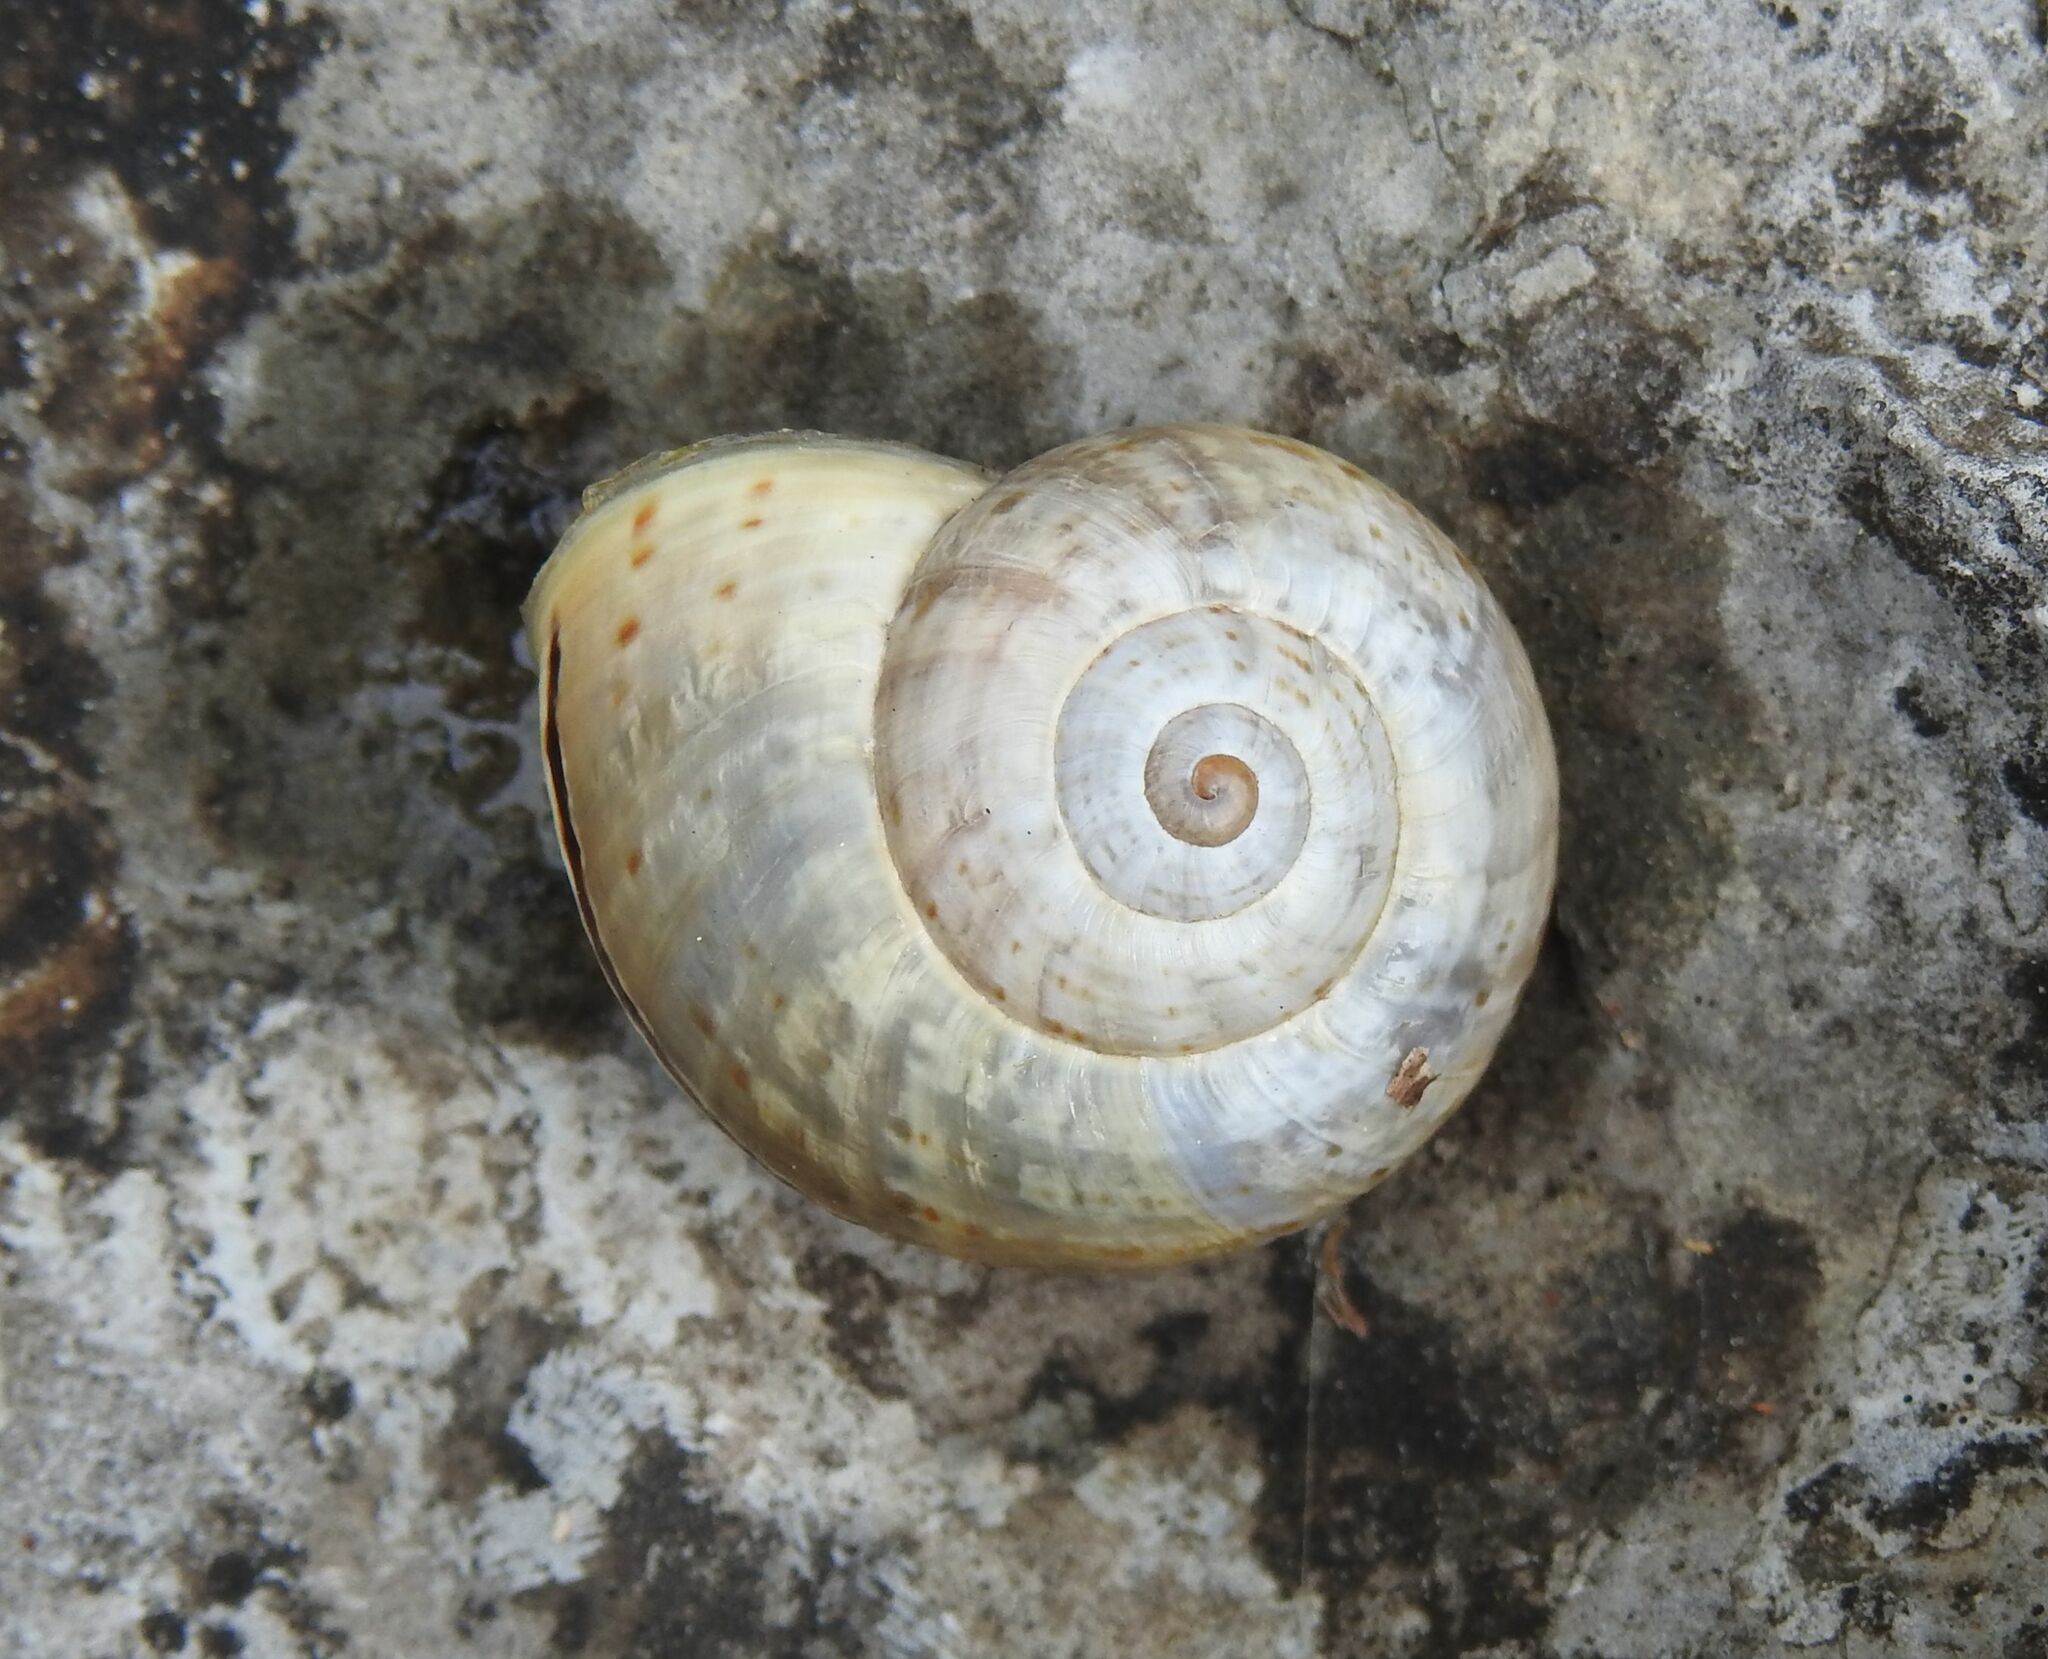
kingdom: Animalia
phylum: Mollusca
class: Gastropoda
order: Stylommatophora
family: Helicidae
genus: Pseudotachea
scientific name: Pseudotachea splendida
